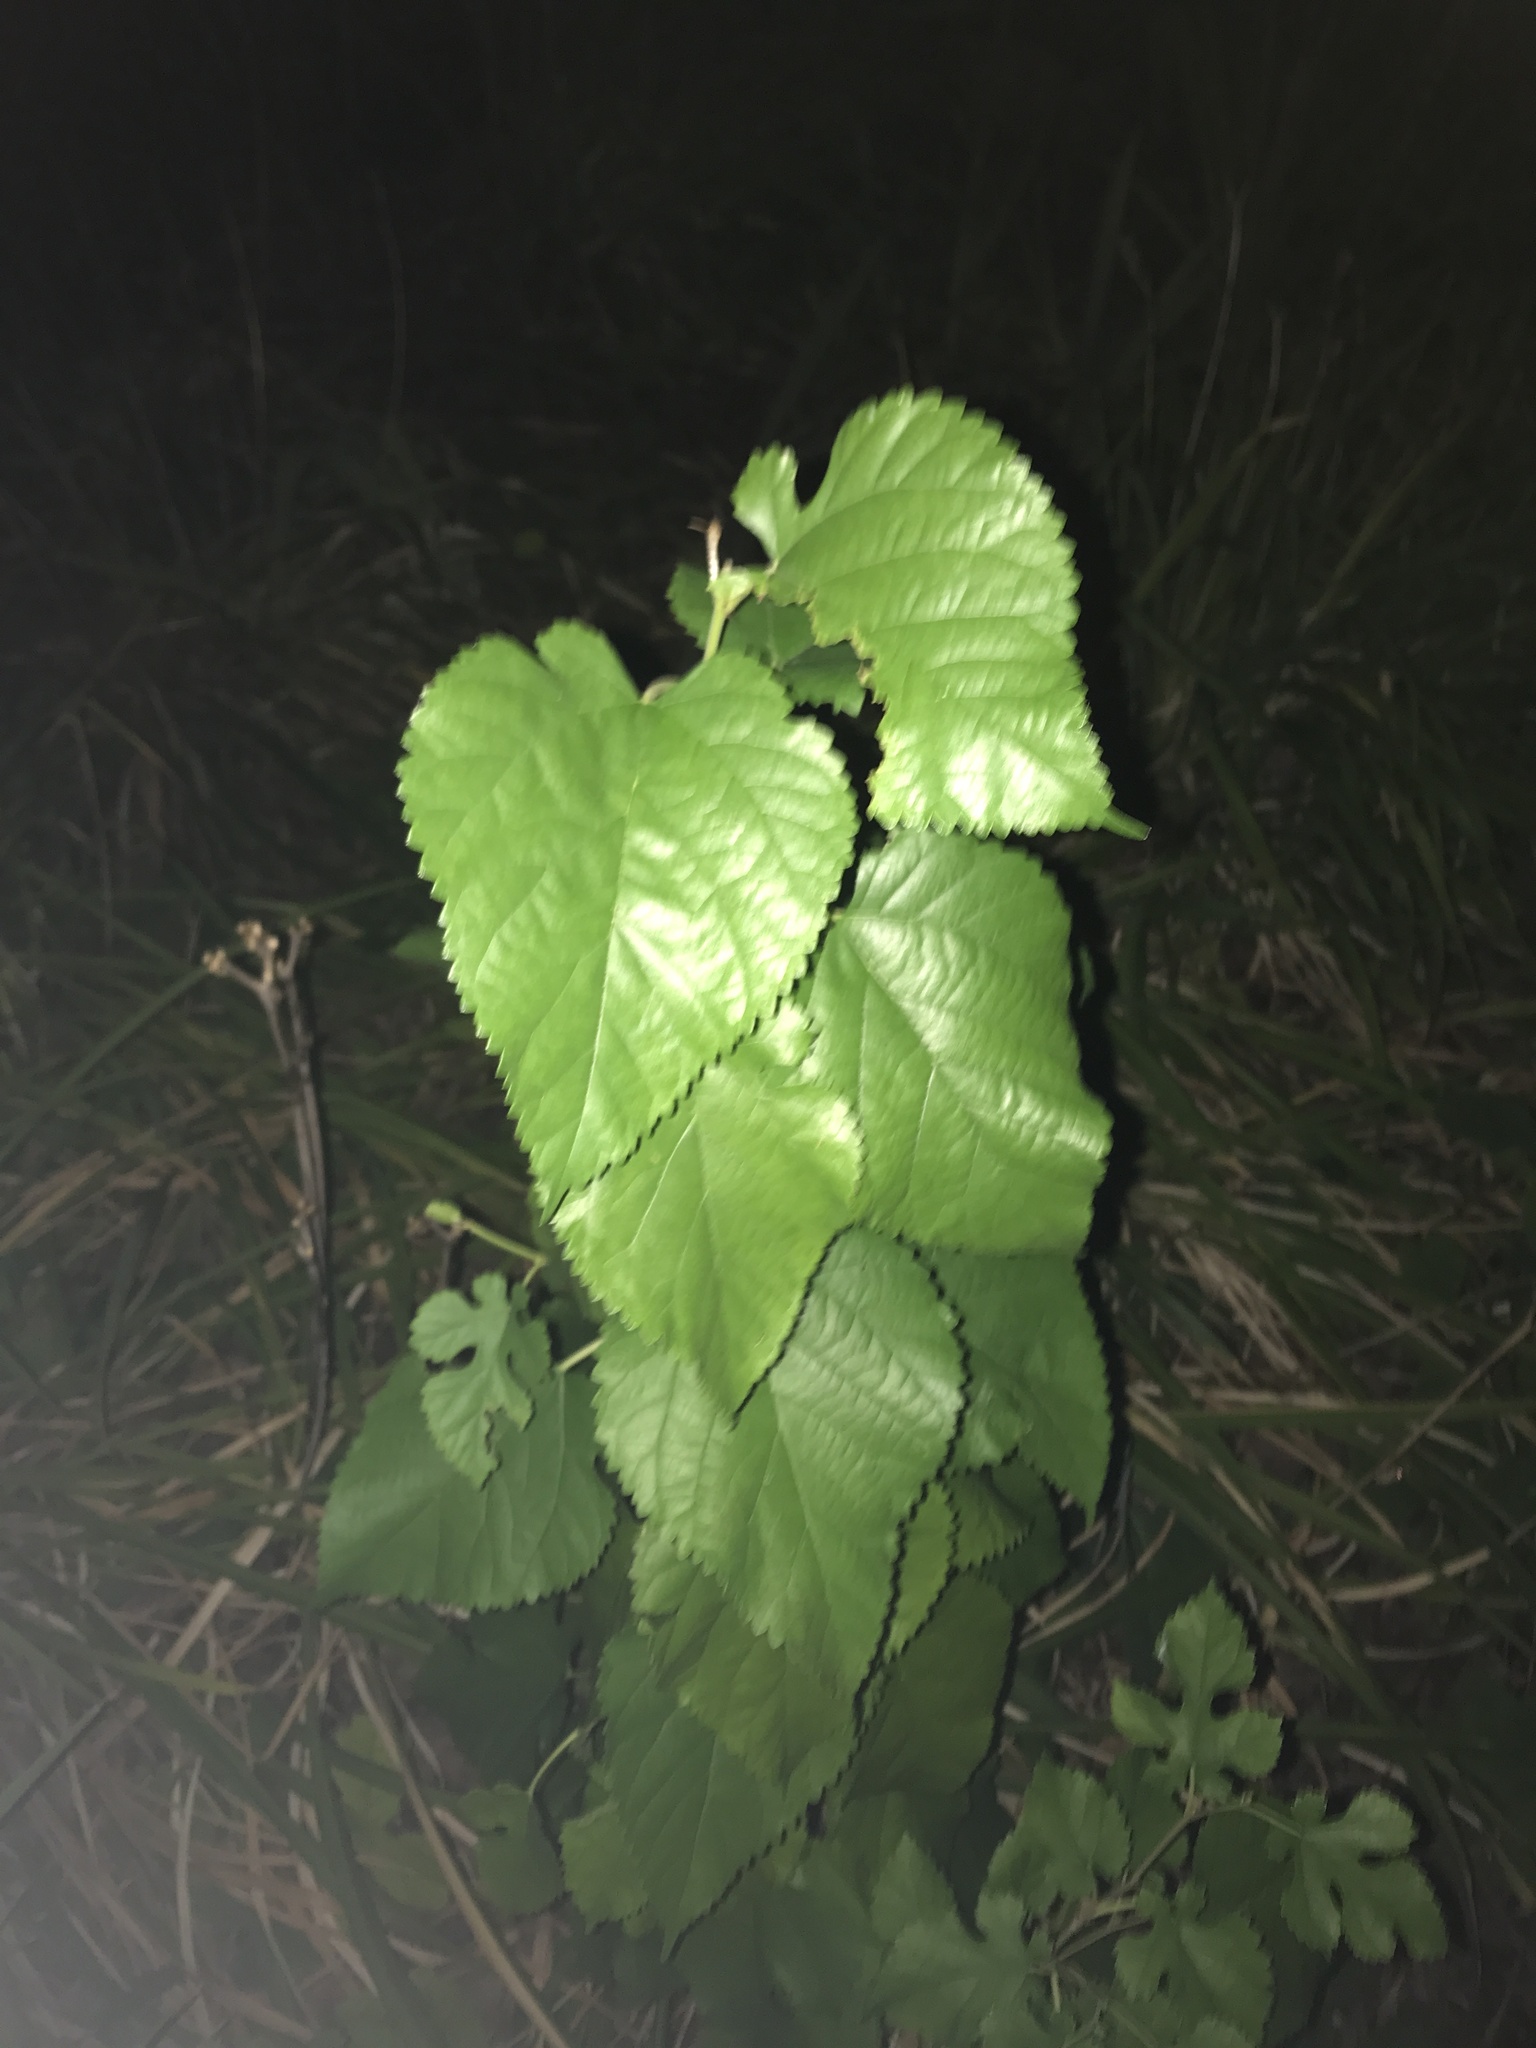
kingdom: Plantae
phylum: Tracheophyta
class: Magnoliopsida
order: Rosales
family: Moraceae
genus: Morus
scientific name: Morus alba
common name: White mulberry
